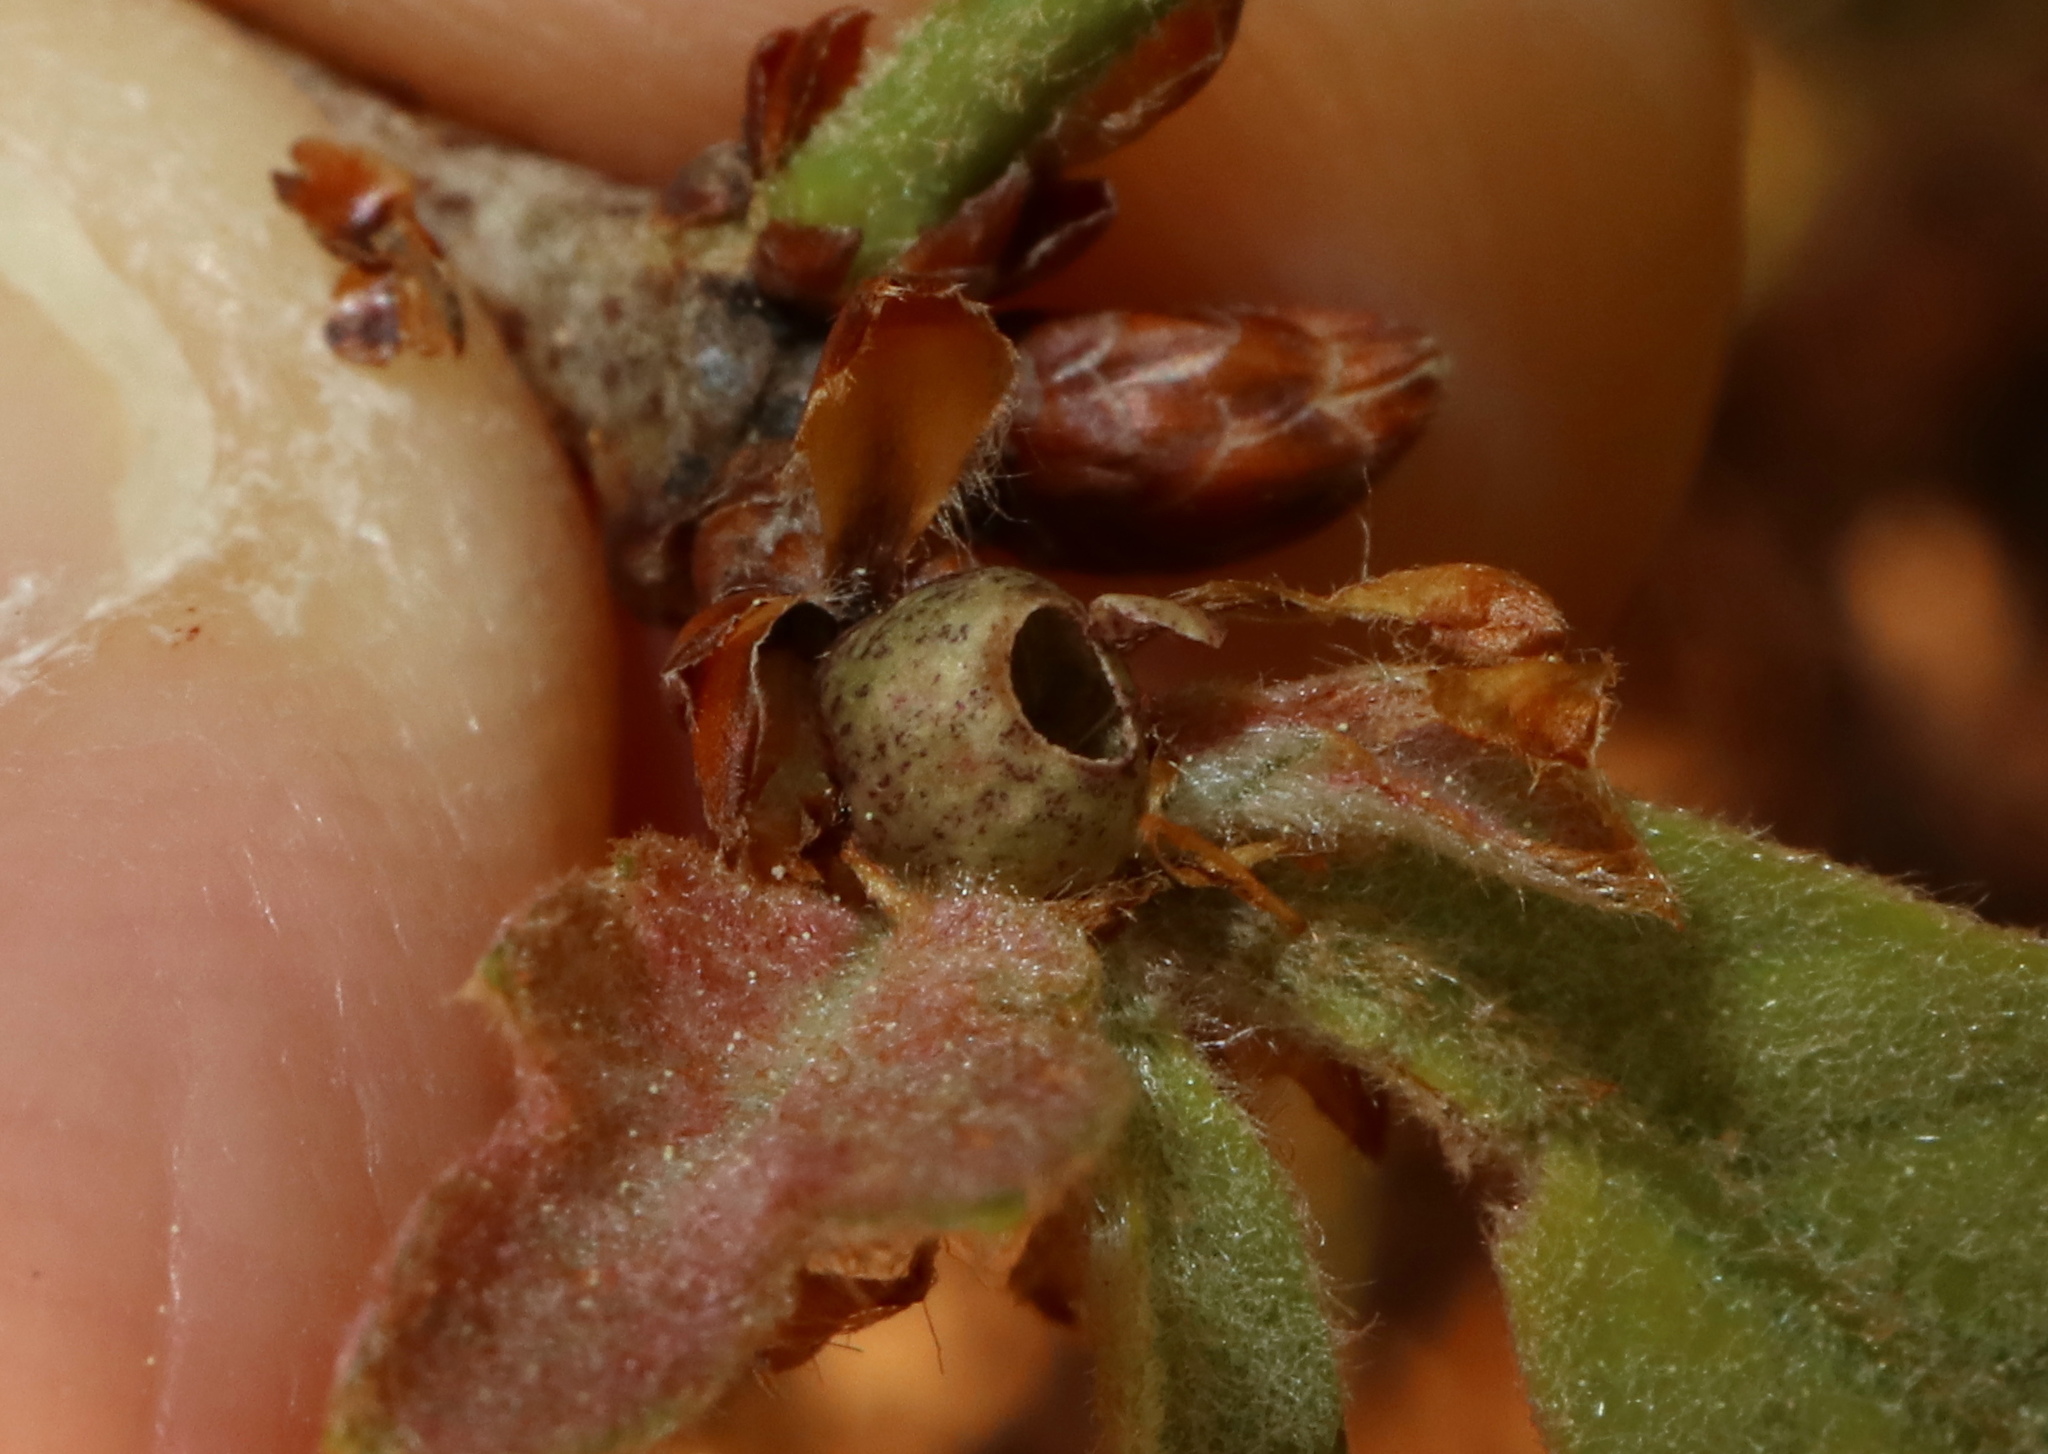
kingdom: Animalia
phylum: Arthropoda
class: Insecta
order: Hymenoptera
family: Cynipidae
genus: Neuroterus
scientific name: Neuroterus
